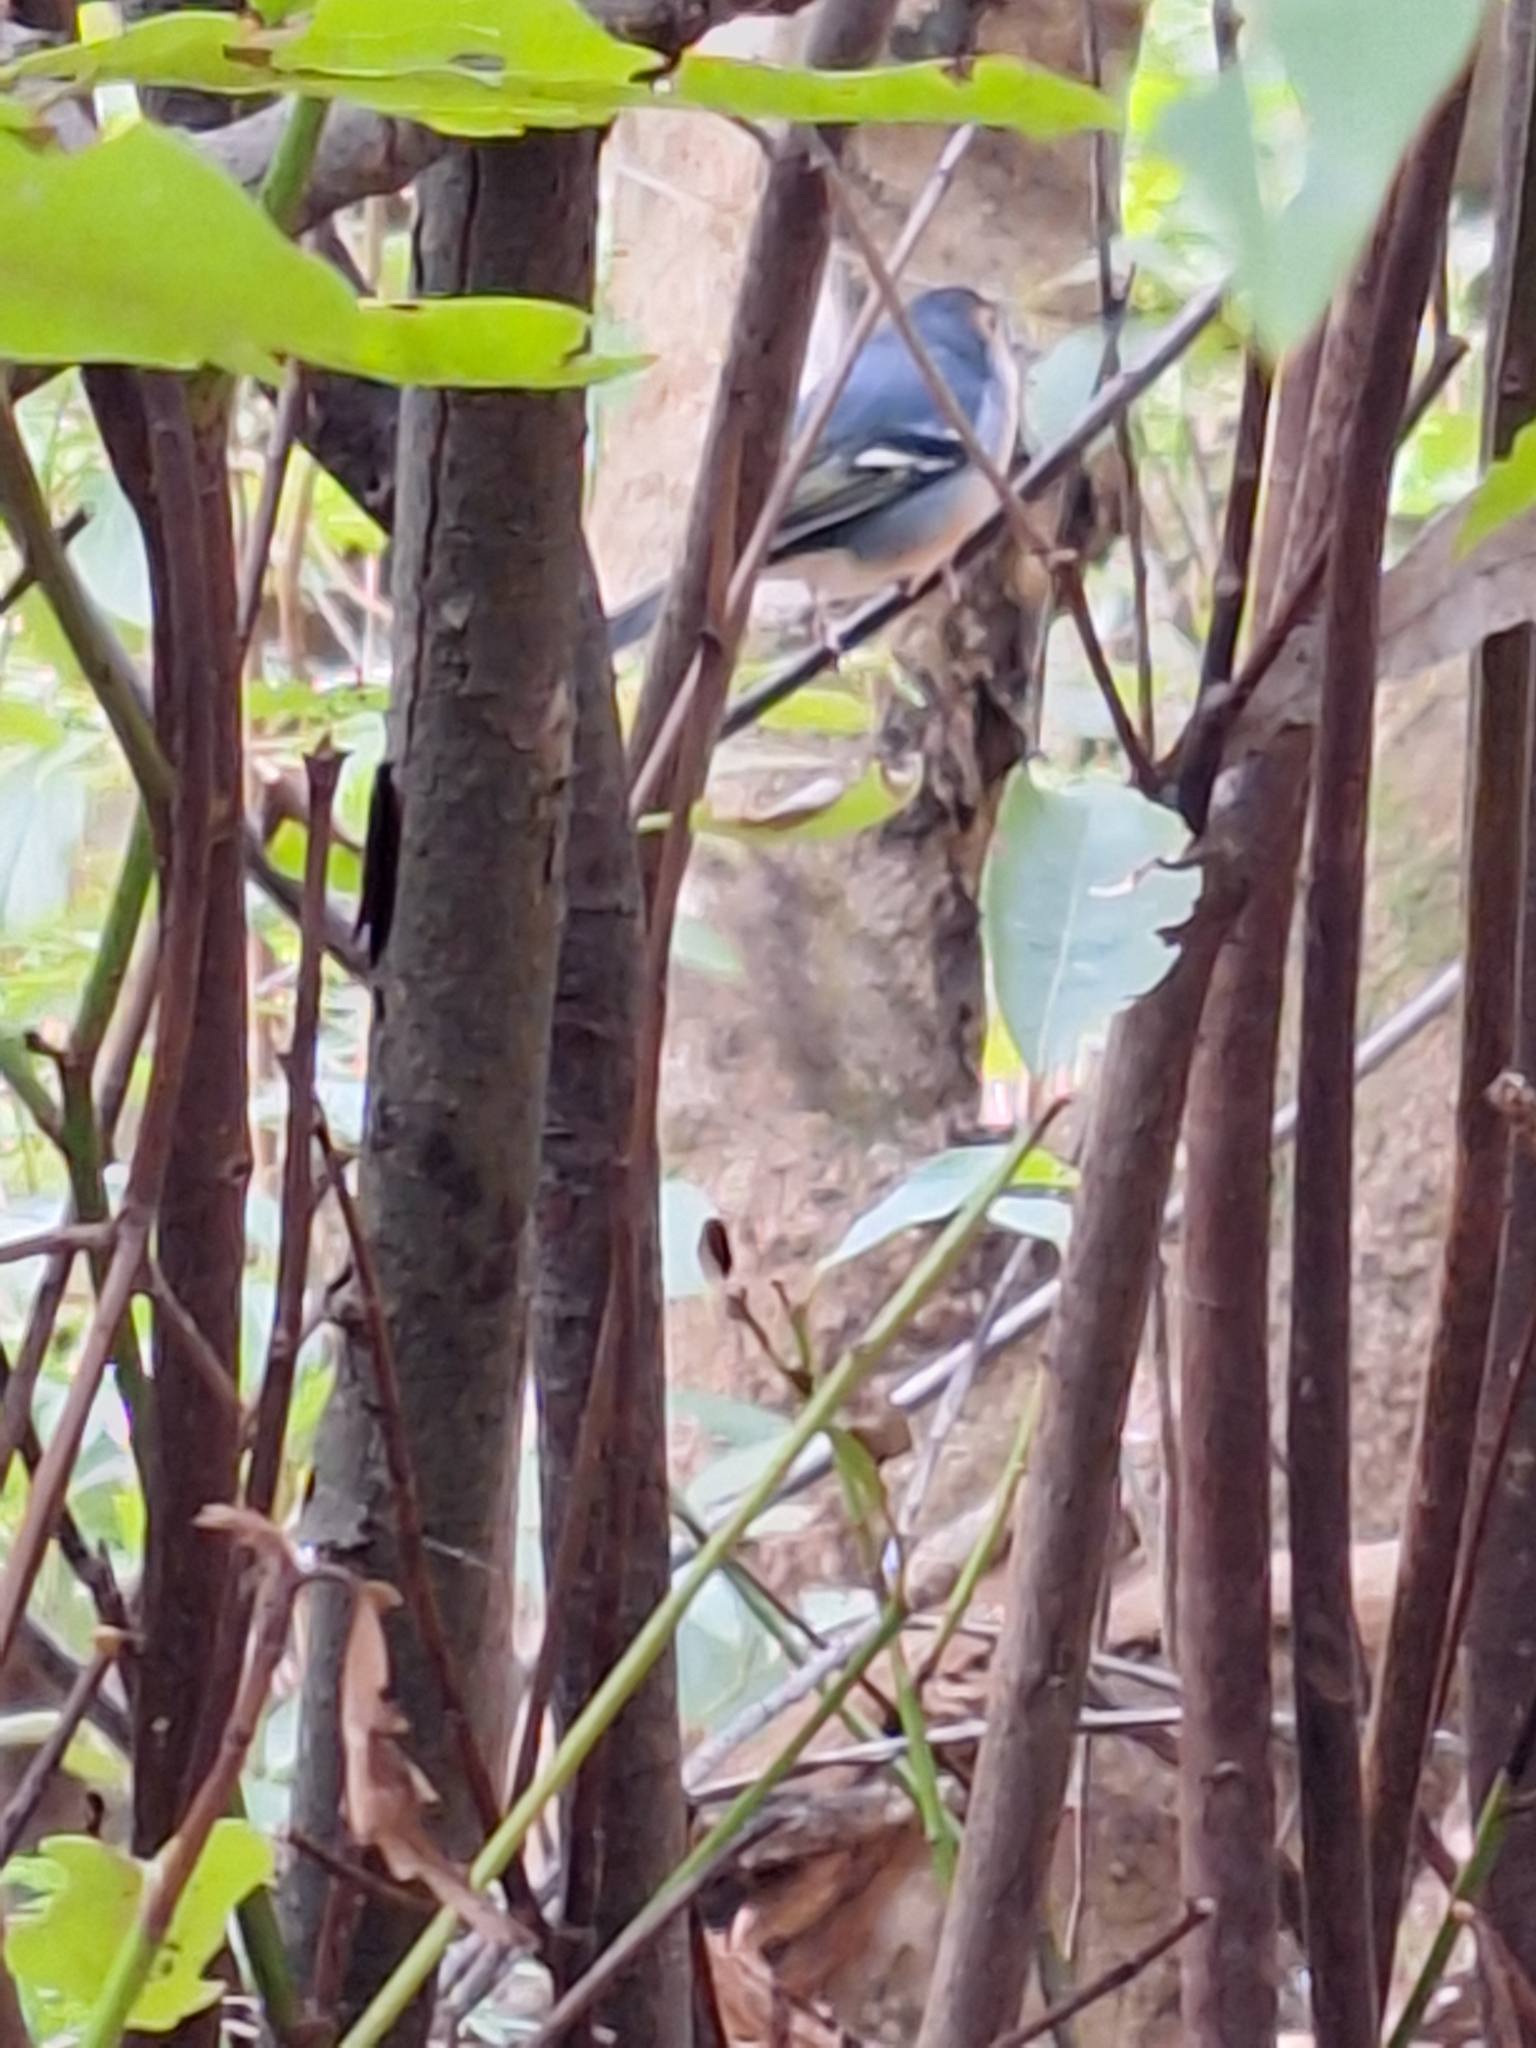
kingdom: Animalia
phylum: Chordata
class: Aves
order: Passeriformes
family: Fringillidae
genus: Fringilla
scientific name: Fringilla canariensis
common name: Canary islands chaffinch
